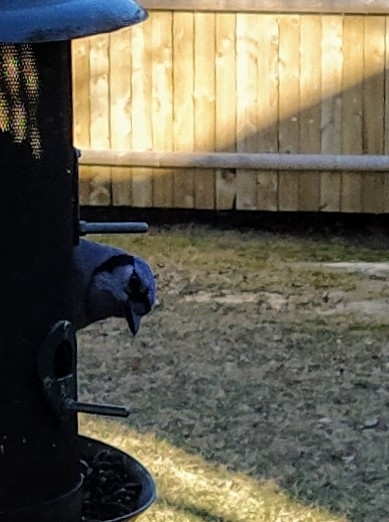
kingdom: Animalia
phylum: Chordata
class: Aves
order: Passeriformes
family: Corvidae
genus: Cyanocitta
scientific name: Cyanocitta cristata
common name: Blue jay
